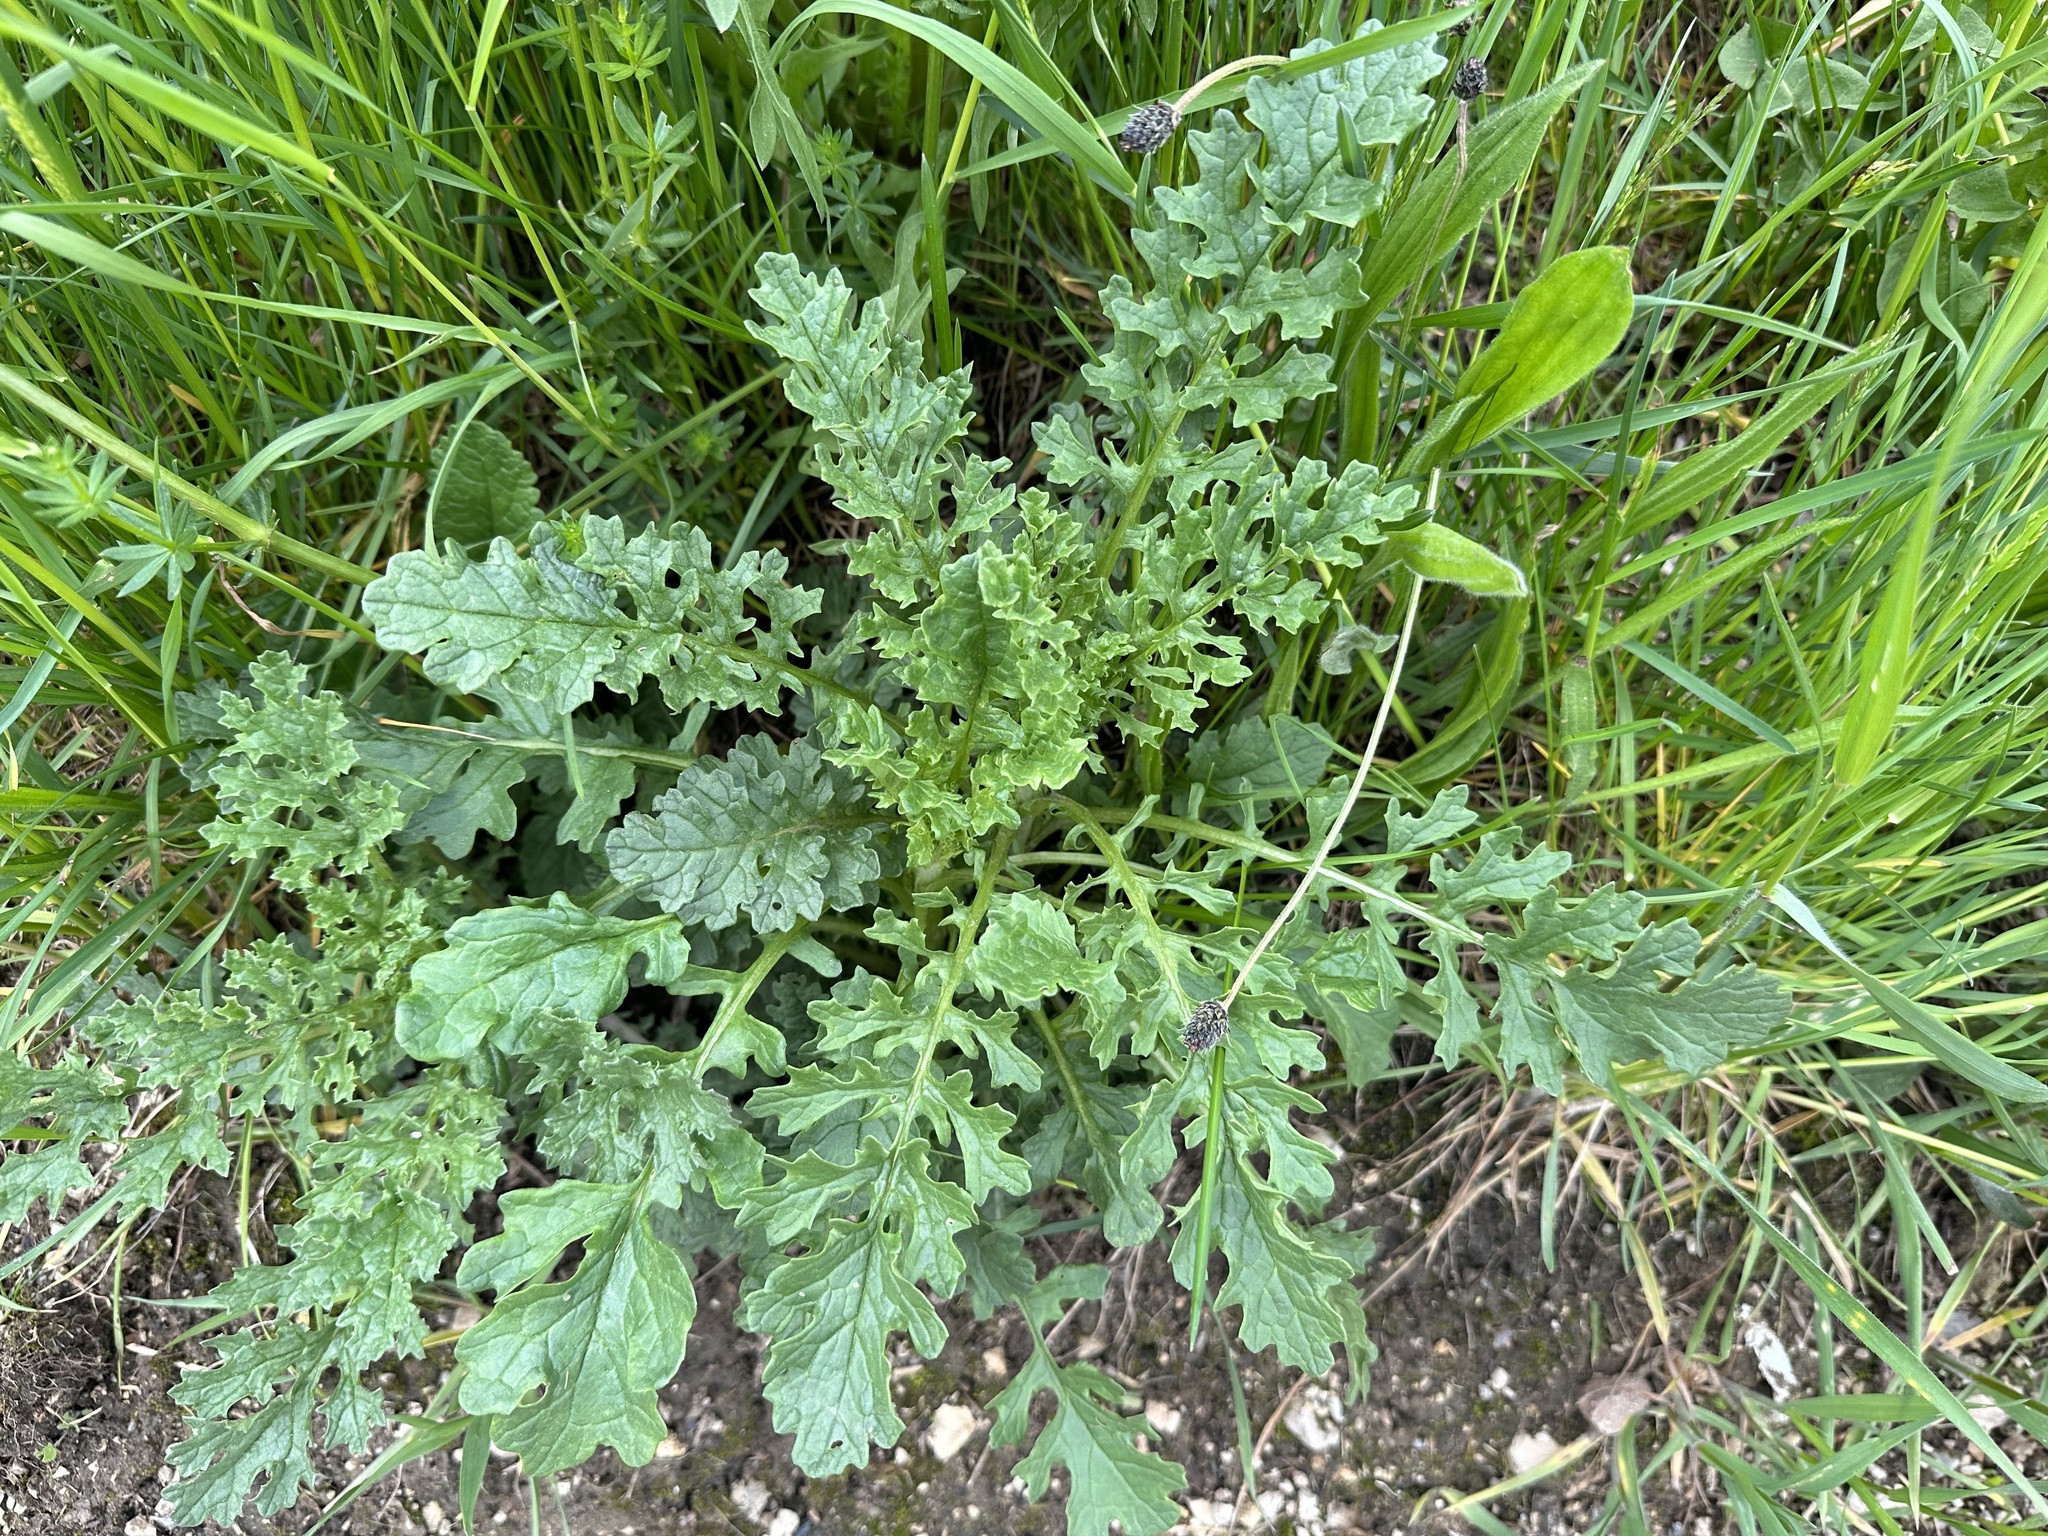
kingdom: Plantae
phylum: Tracheophyta
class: Magnoliopsida
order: Asterales
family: Asteraceae
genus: Jacobaea
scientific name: Jacobaea vulgaris
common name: Stinking willie
